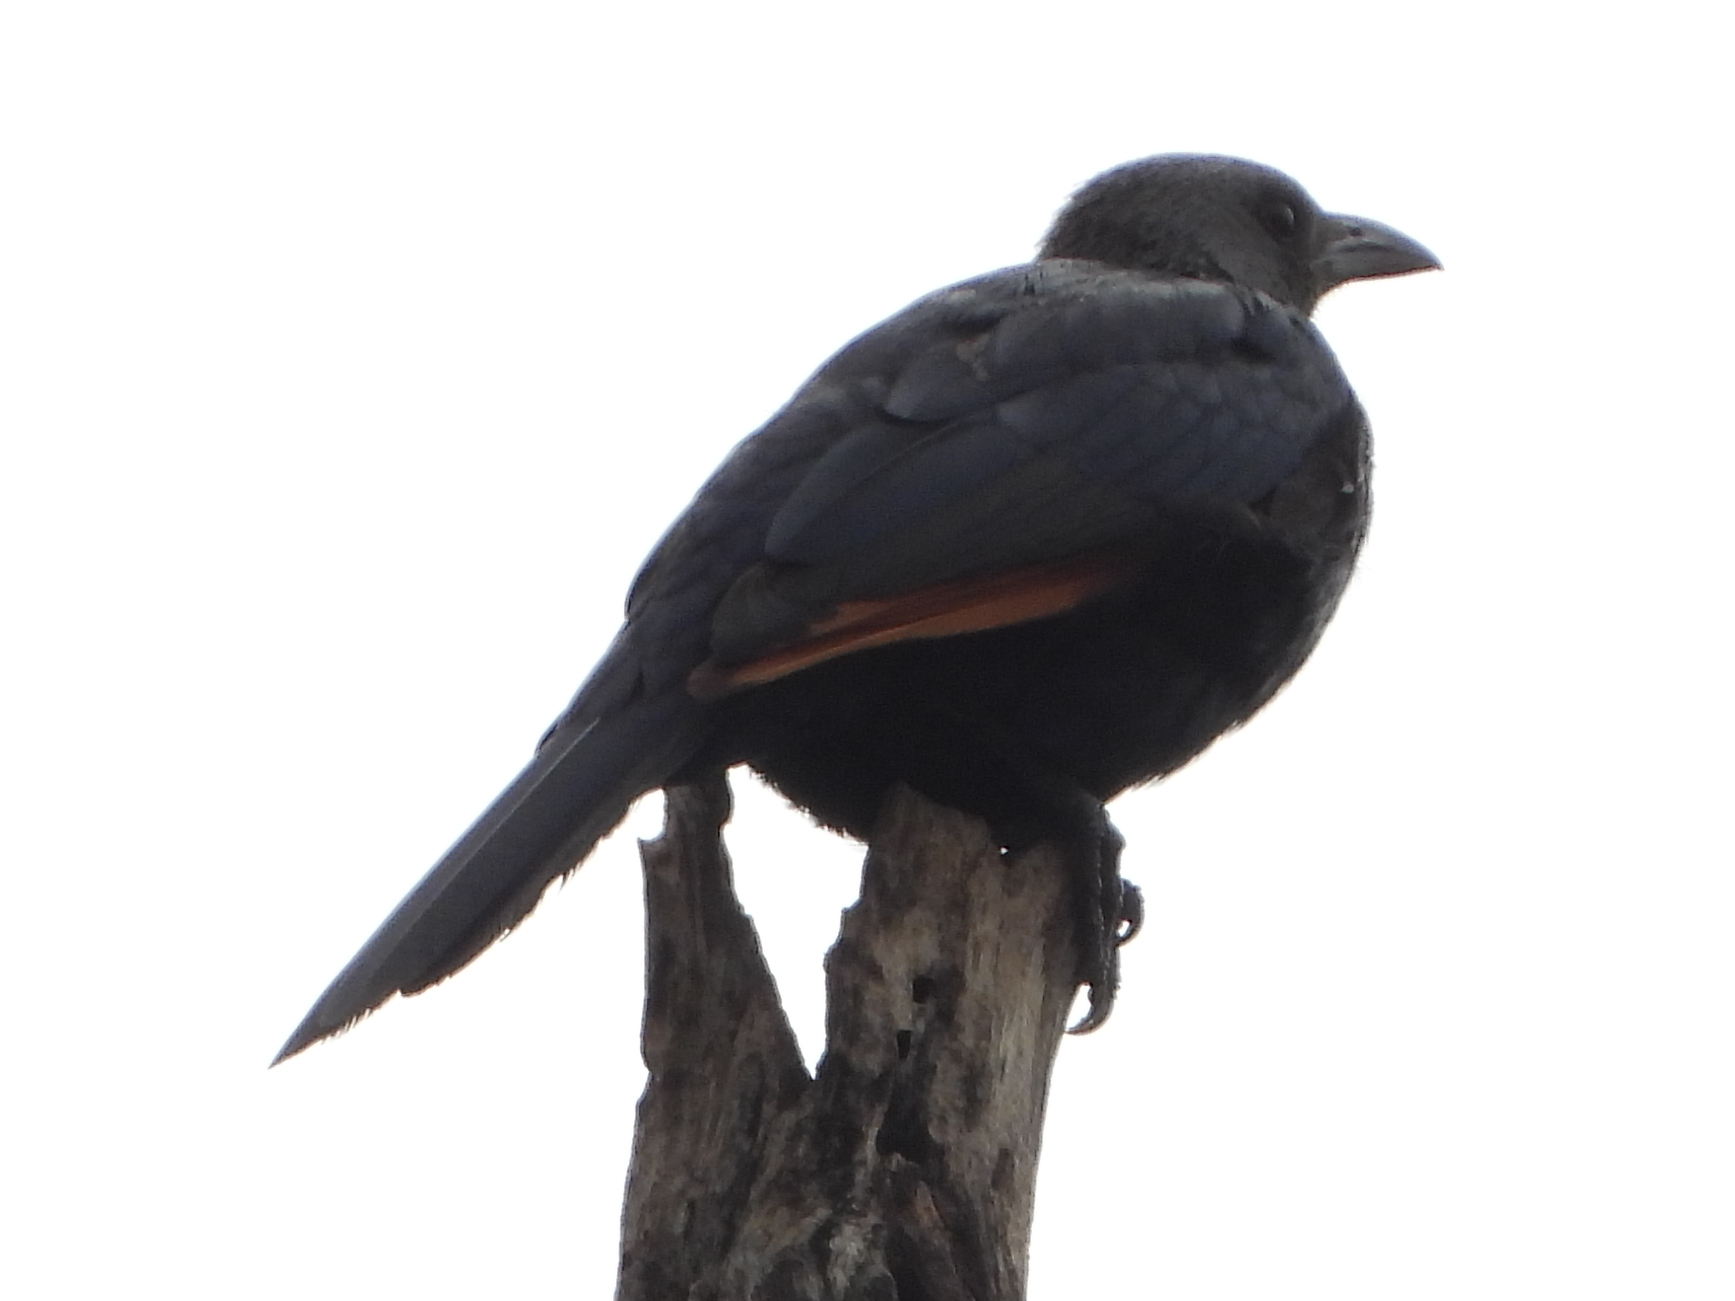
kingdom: Animalia
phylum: Chordata
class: Aves
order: Passeriformes
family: Sturnidae
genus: Onychognathus
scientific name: Onychognathus morio
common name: Red-winged starling
